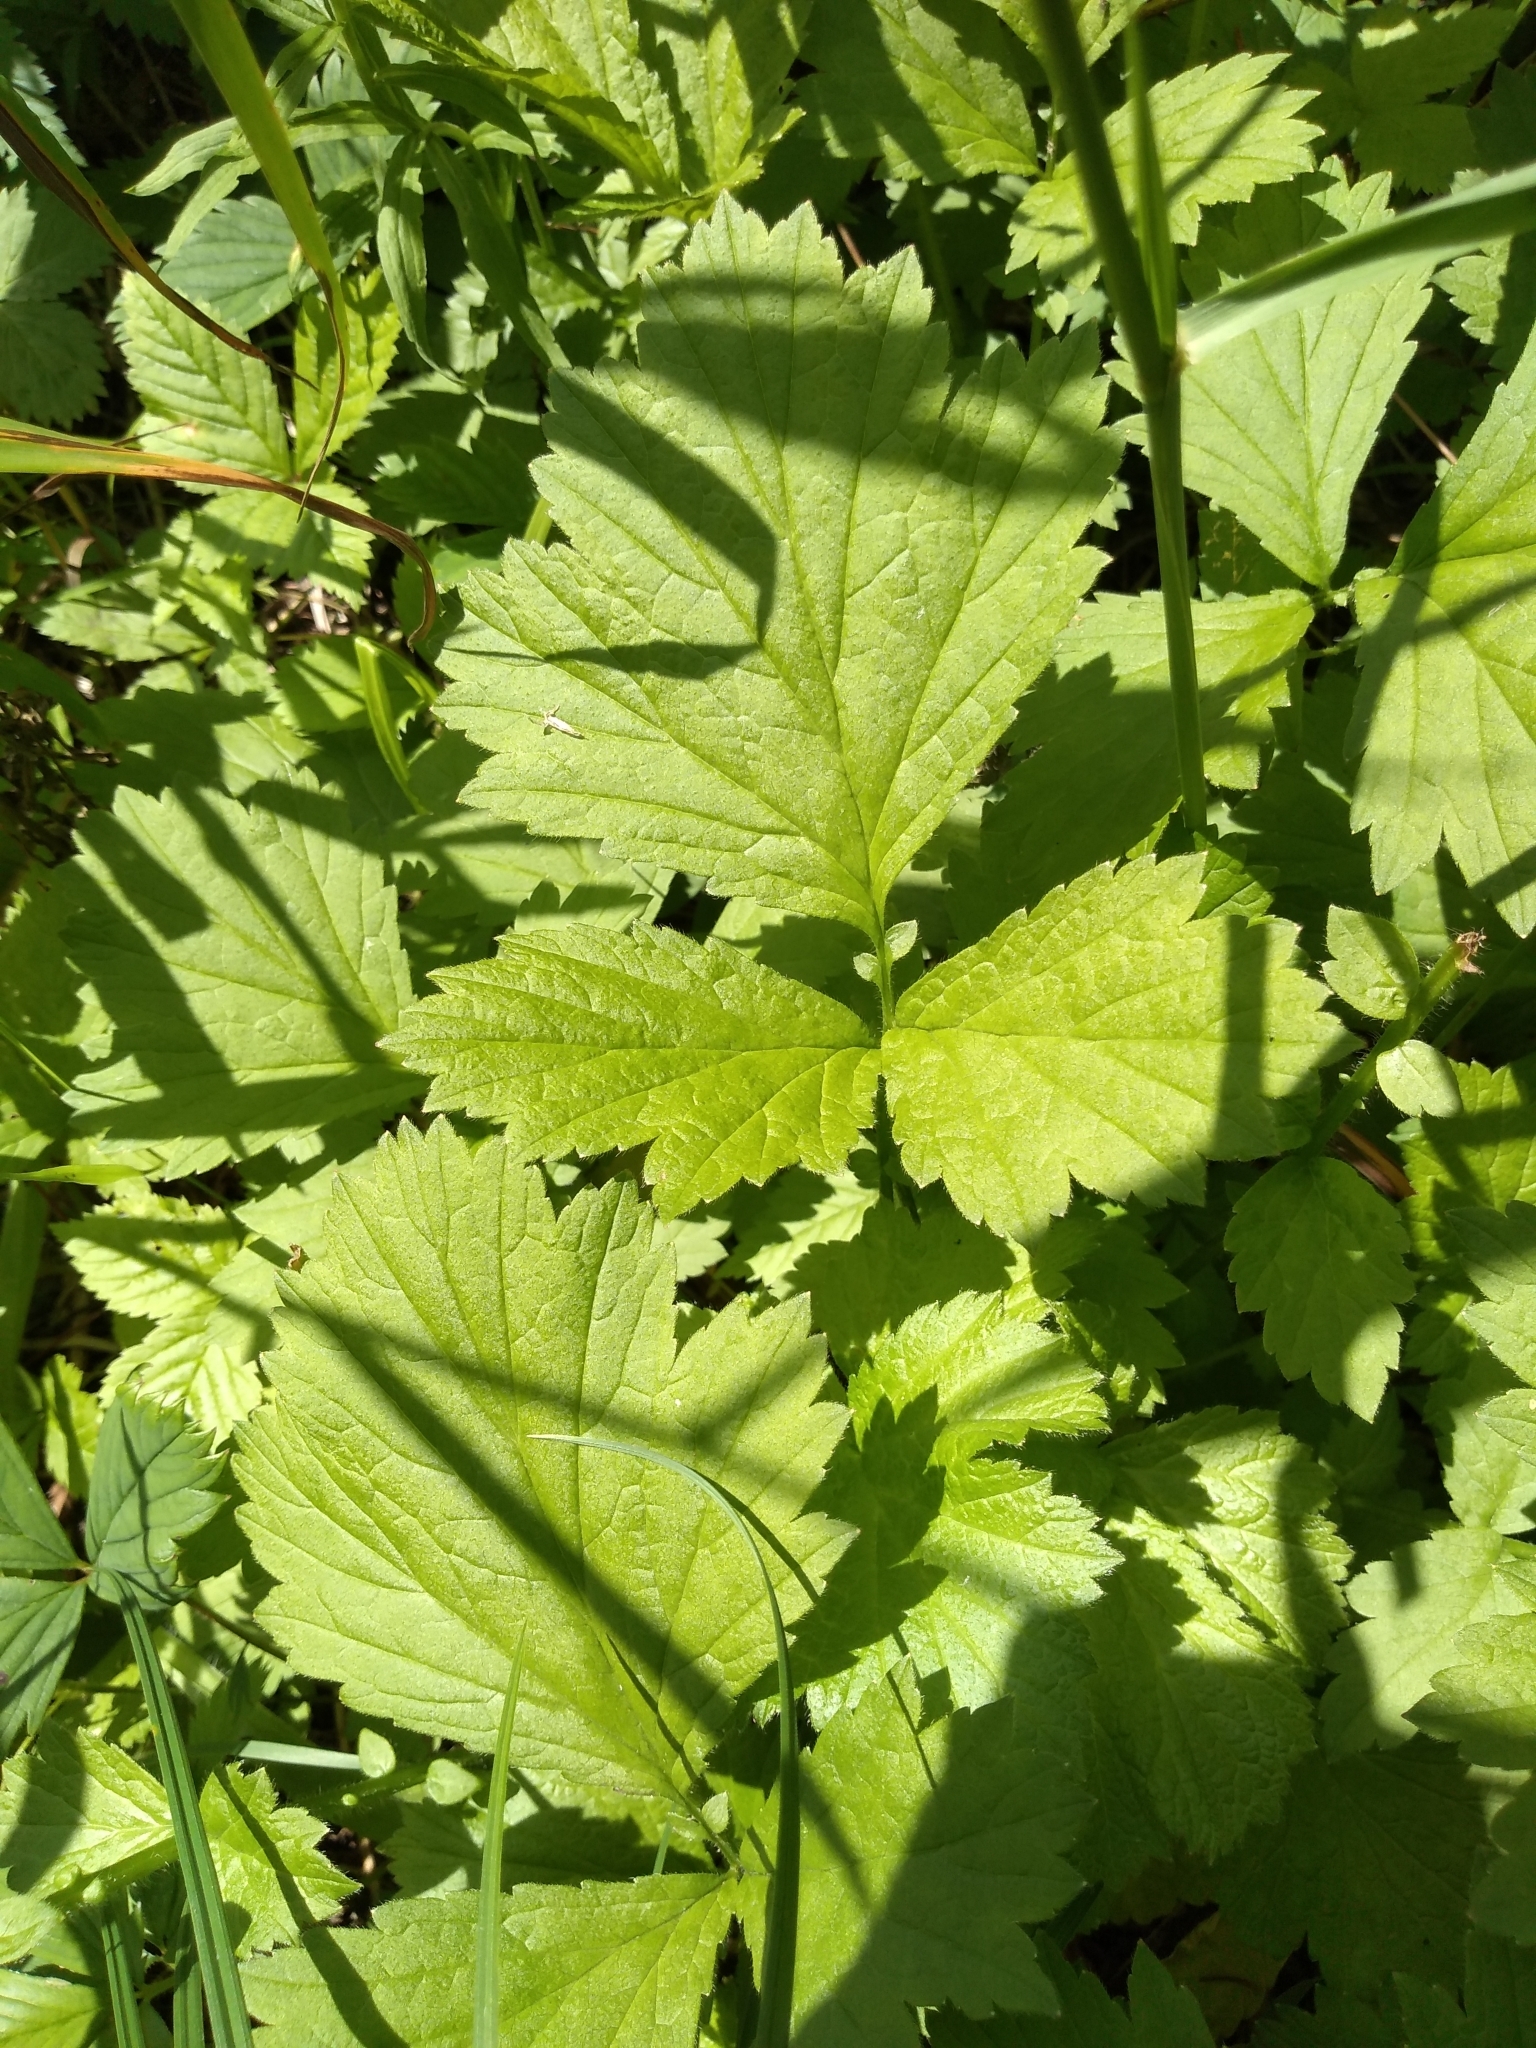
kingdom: Plantae
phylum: Tracheophyta
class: Magnoliopsida
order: Rosales
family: Rosaceae
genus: Geum
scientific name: Geum rivale
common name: Water avens
